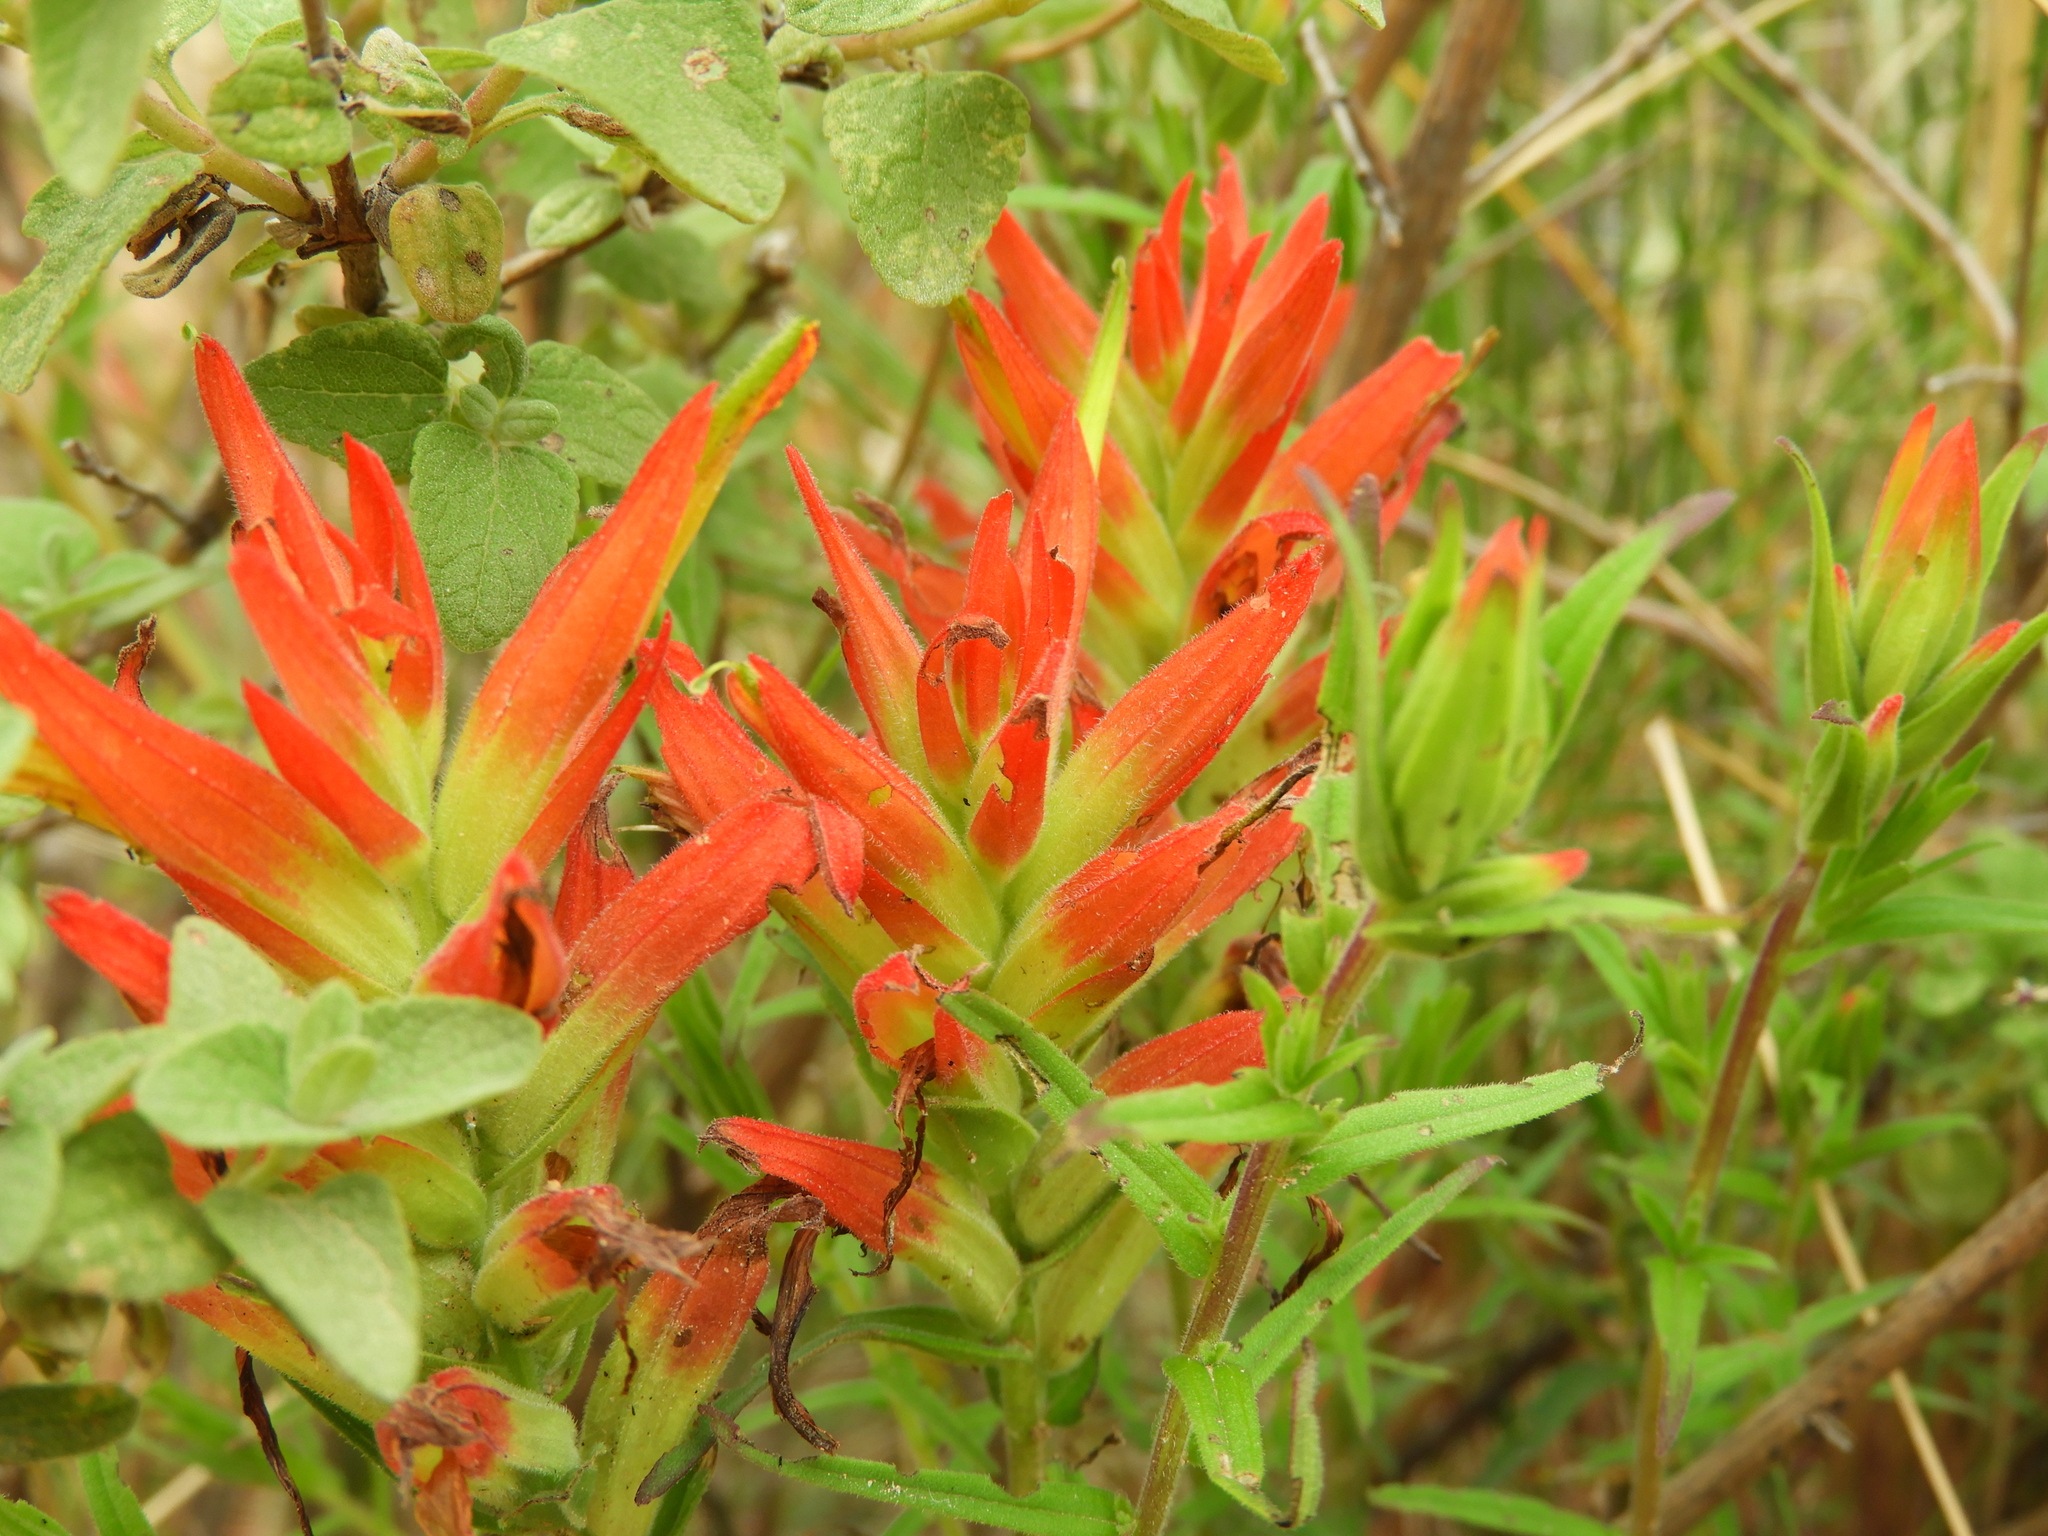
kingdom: Plantae
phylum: Tracheophyta
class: Magnoliopsida
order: Lamiales
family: Orobanchaceae
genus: Castilleja
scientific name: Castilleja tenuiflora
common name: Santa catalina indian paintbrush
